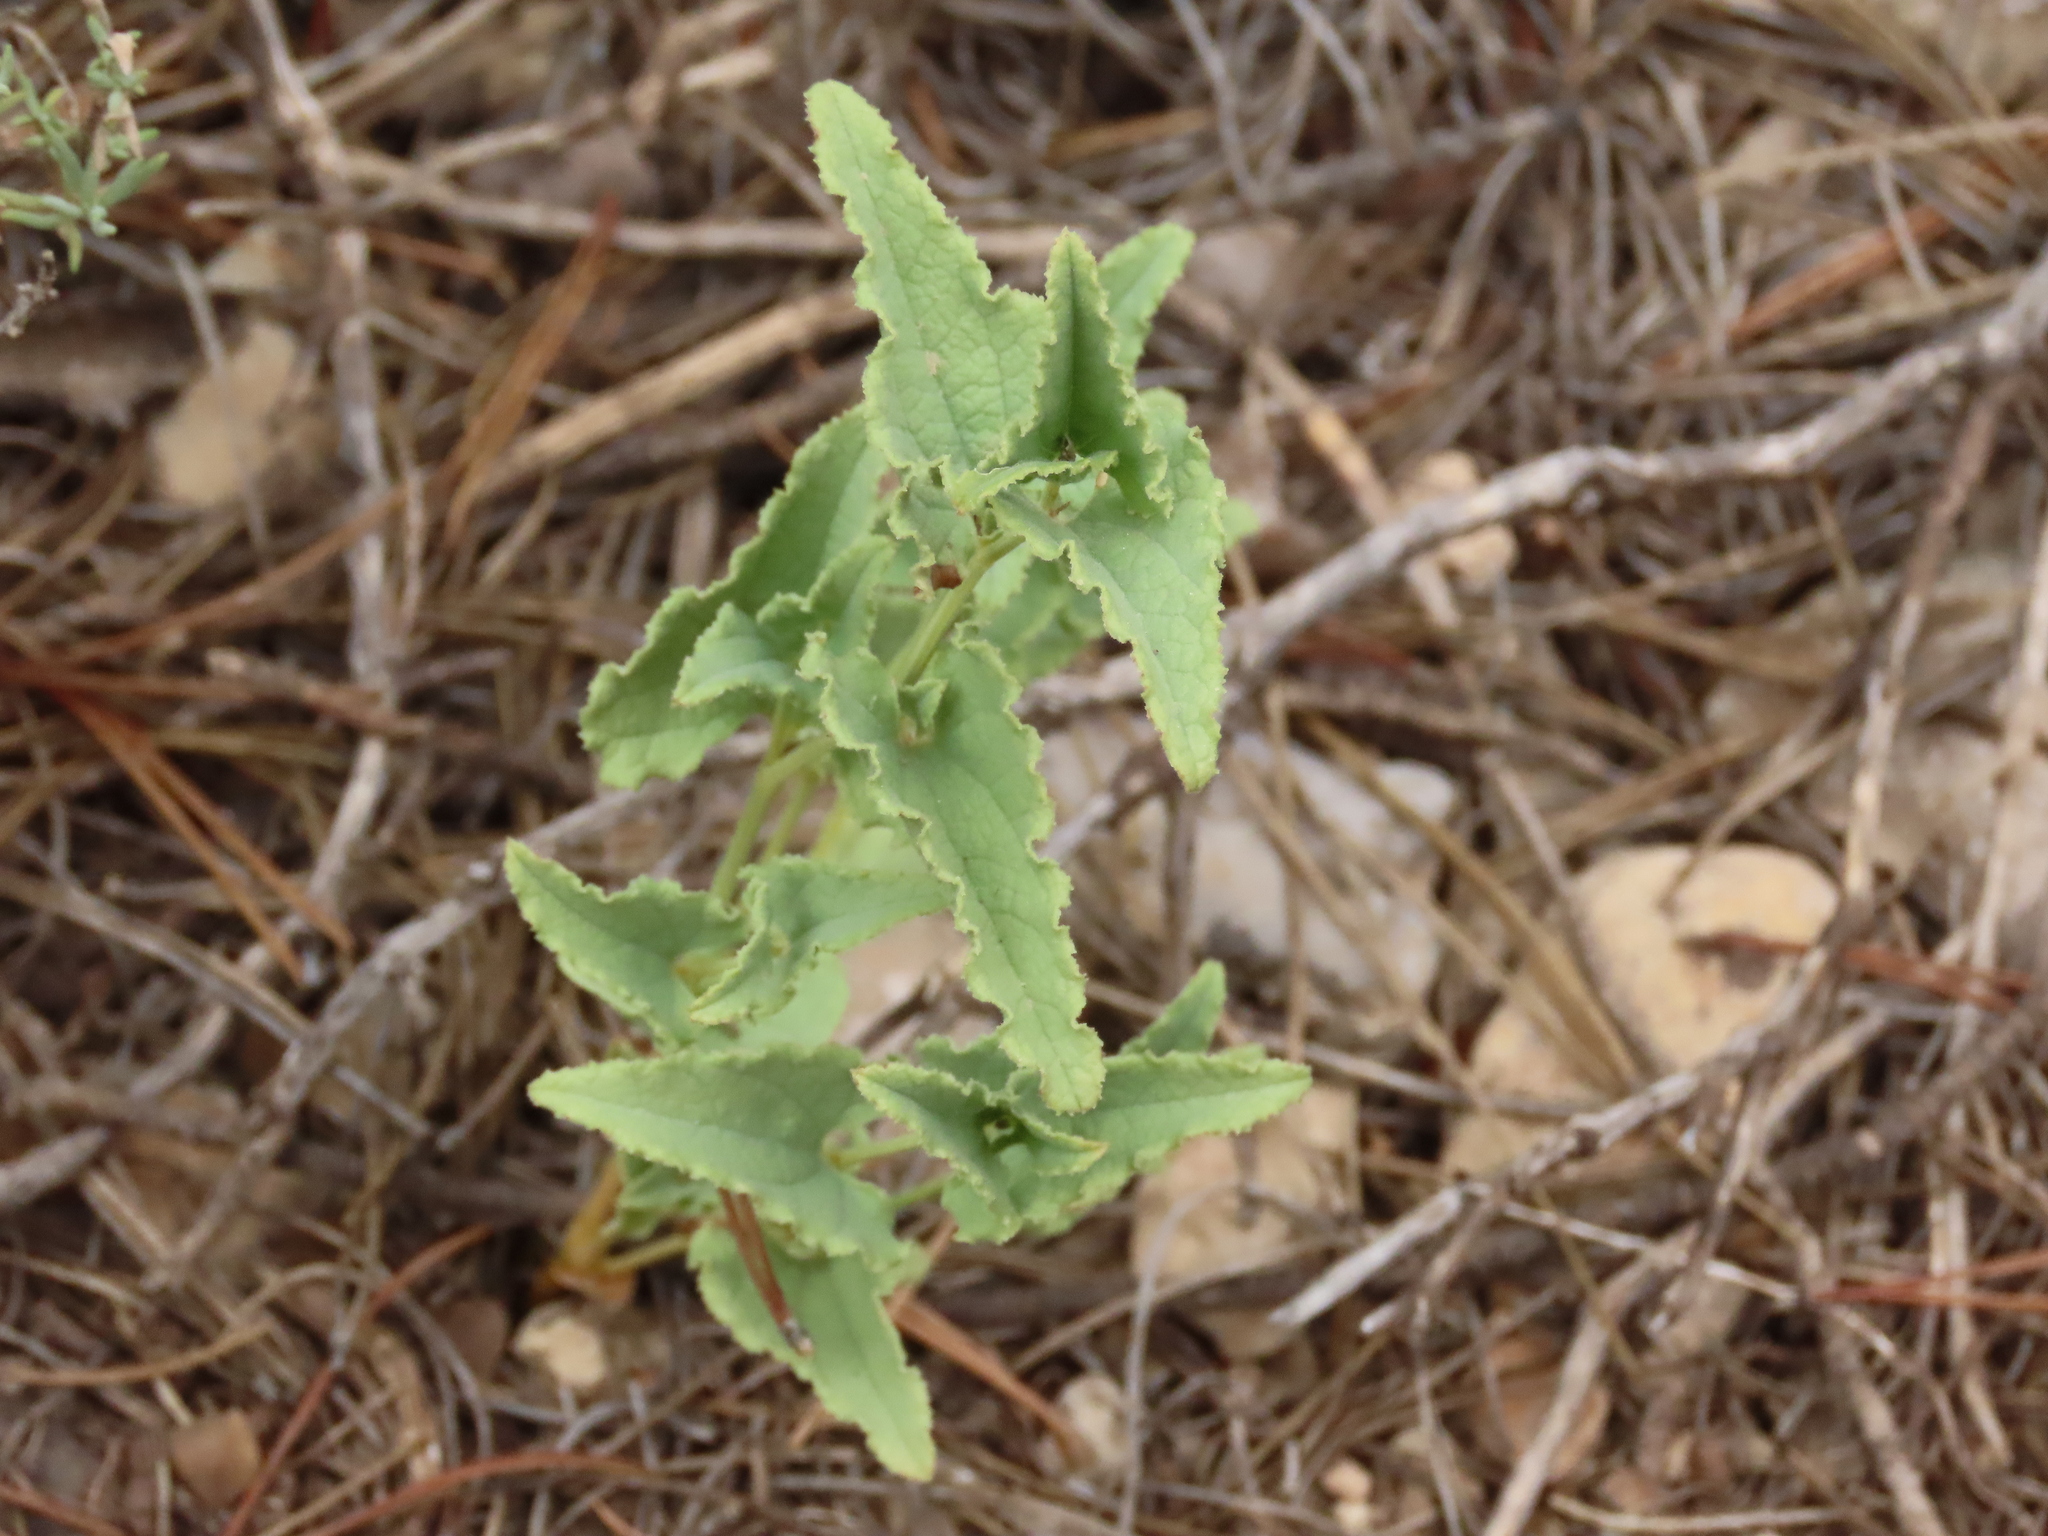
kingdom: Plantae
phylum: Tracheophyta
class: Magnoliopsida
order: Piperales
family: Aristolochiaceae
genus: Aristolochia
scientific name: Aristolochia pistolochia
